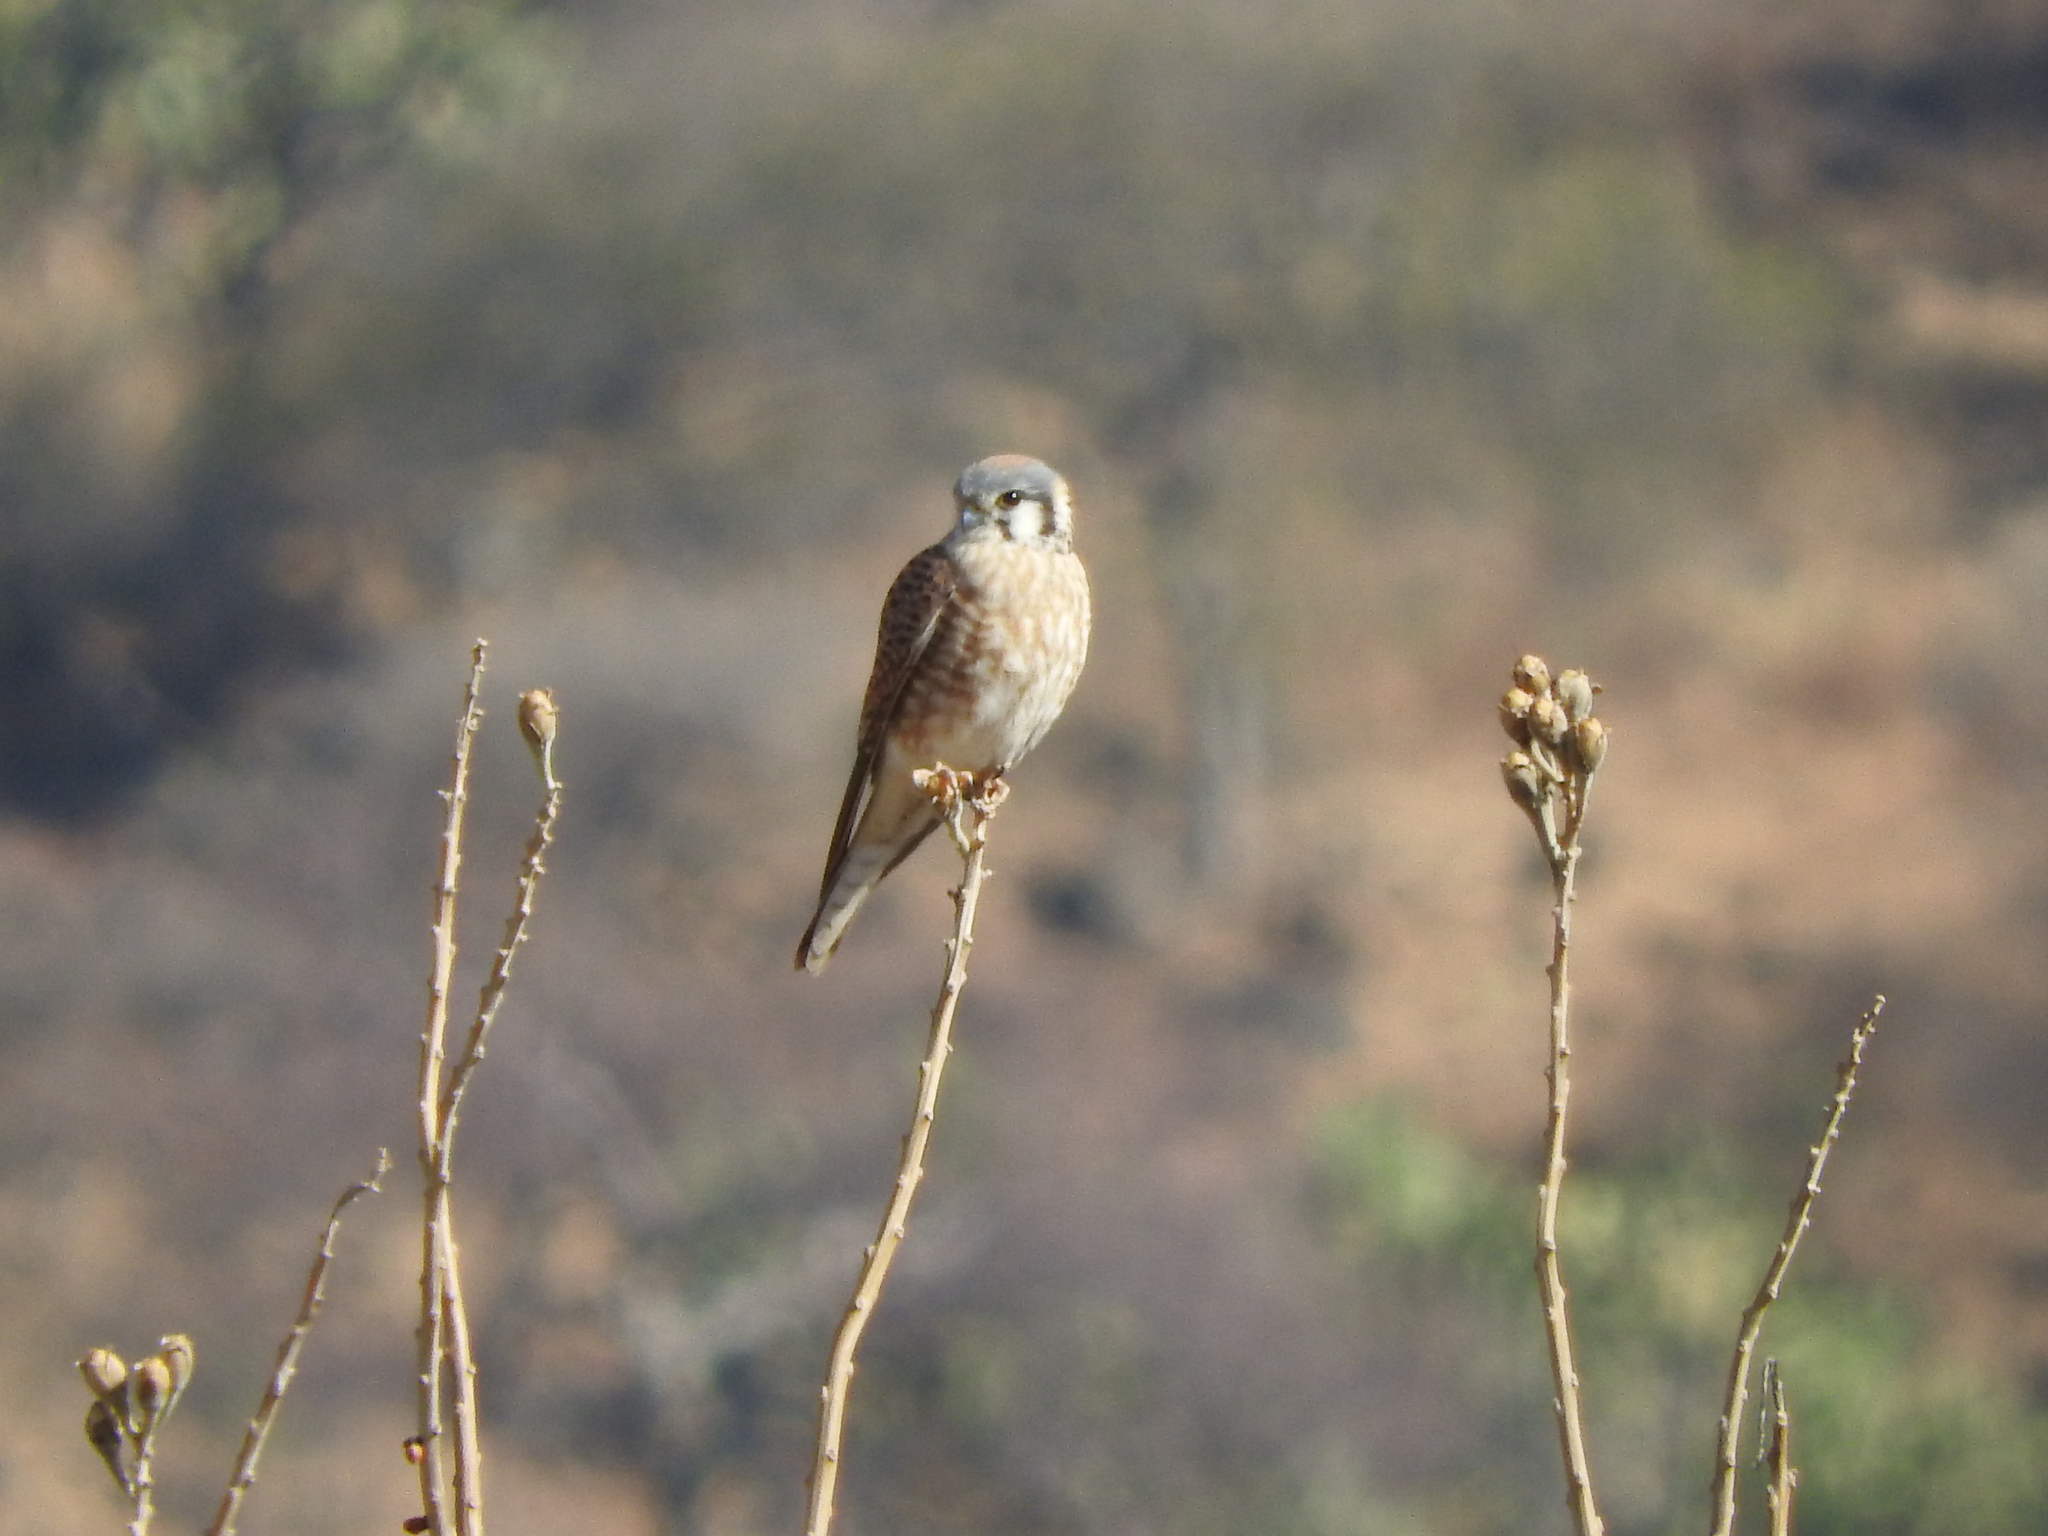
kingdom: Animalia
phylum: Chordata
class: Aves
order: Falconiformes
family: Falconidae
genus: Falco
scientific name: Falco sparverius
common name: American kestrel
